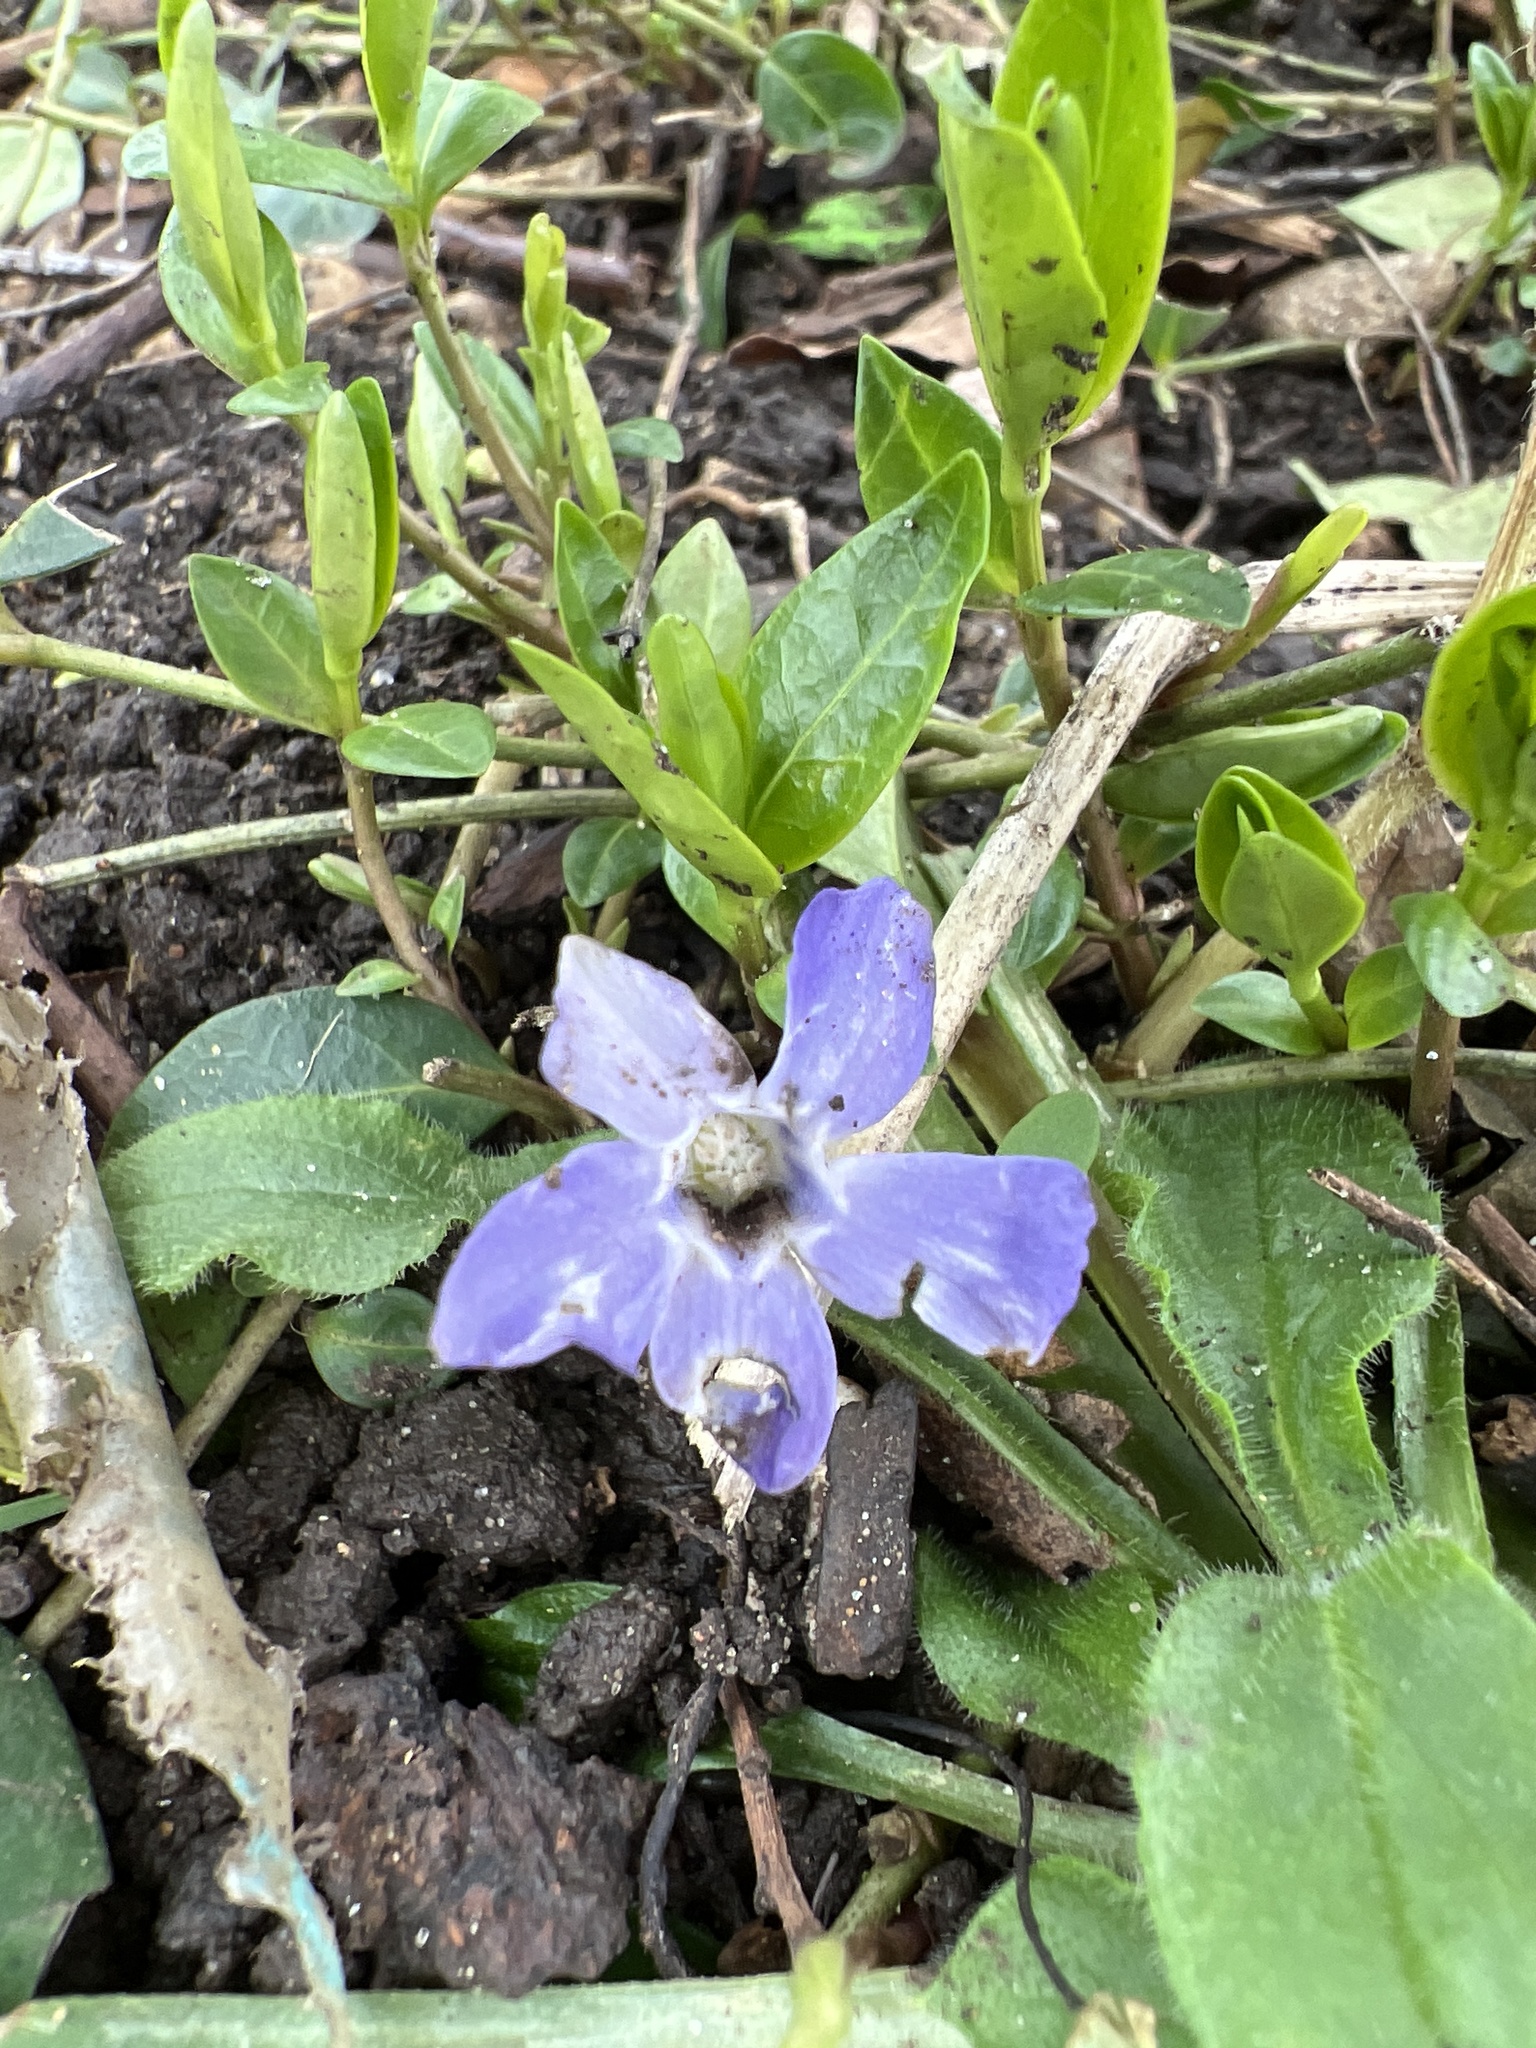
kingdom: Plantae
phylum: Tracheophyta
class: Magnoliopsida
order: Gentianales
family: Apocynaceae
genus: Vinca
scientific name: Vinca minor
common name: Lesser periwinkle
